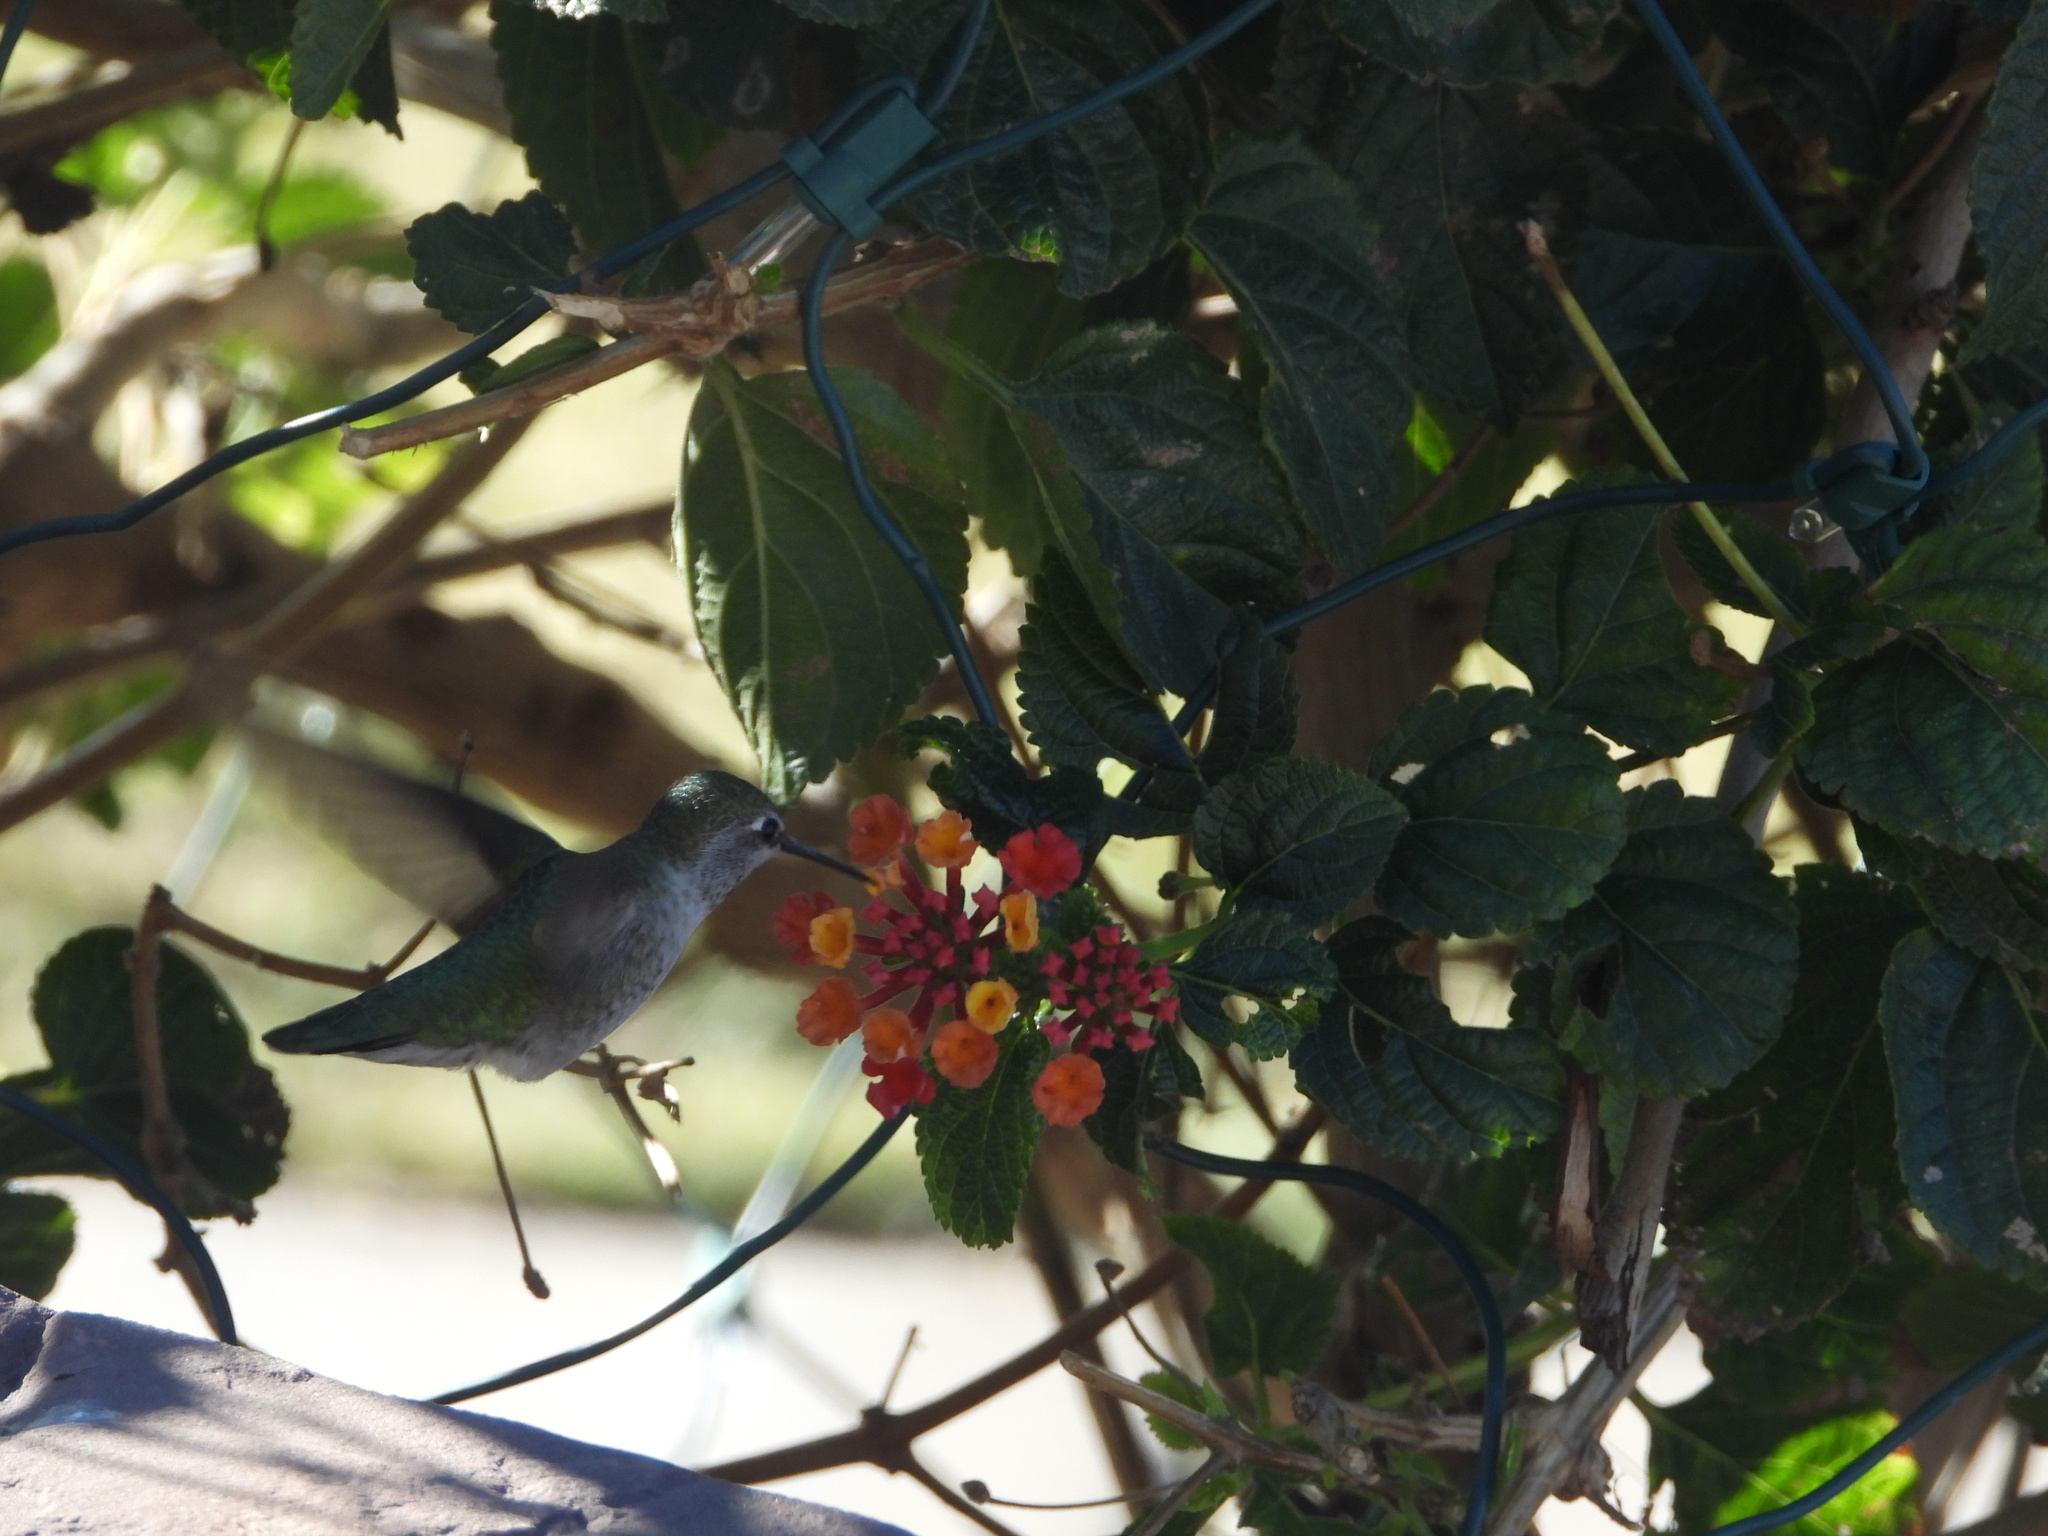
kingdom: Animalia
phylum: Chordata
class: Aves
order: Apodiformes
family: Trochilidae
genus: Calypte
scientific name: Calypte anna
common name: Anna's hummingbird
